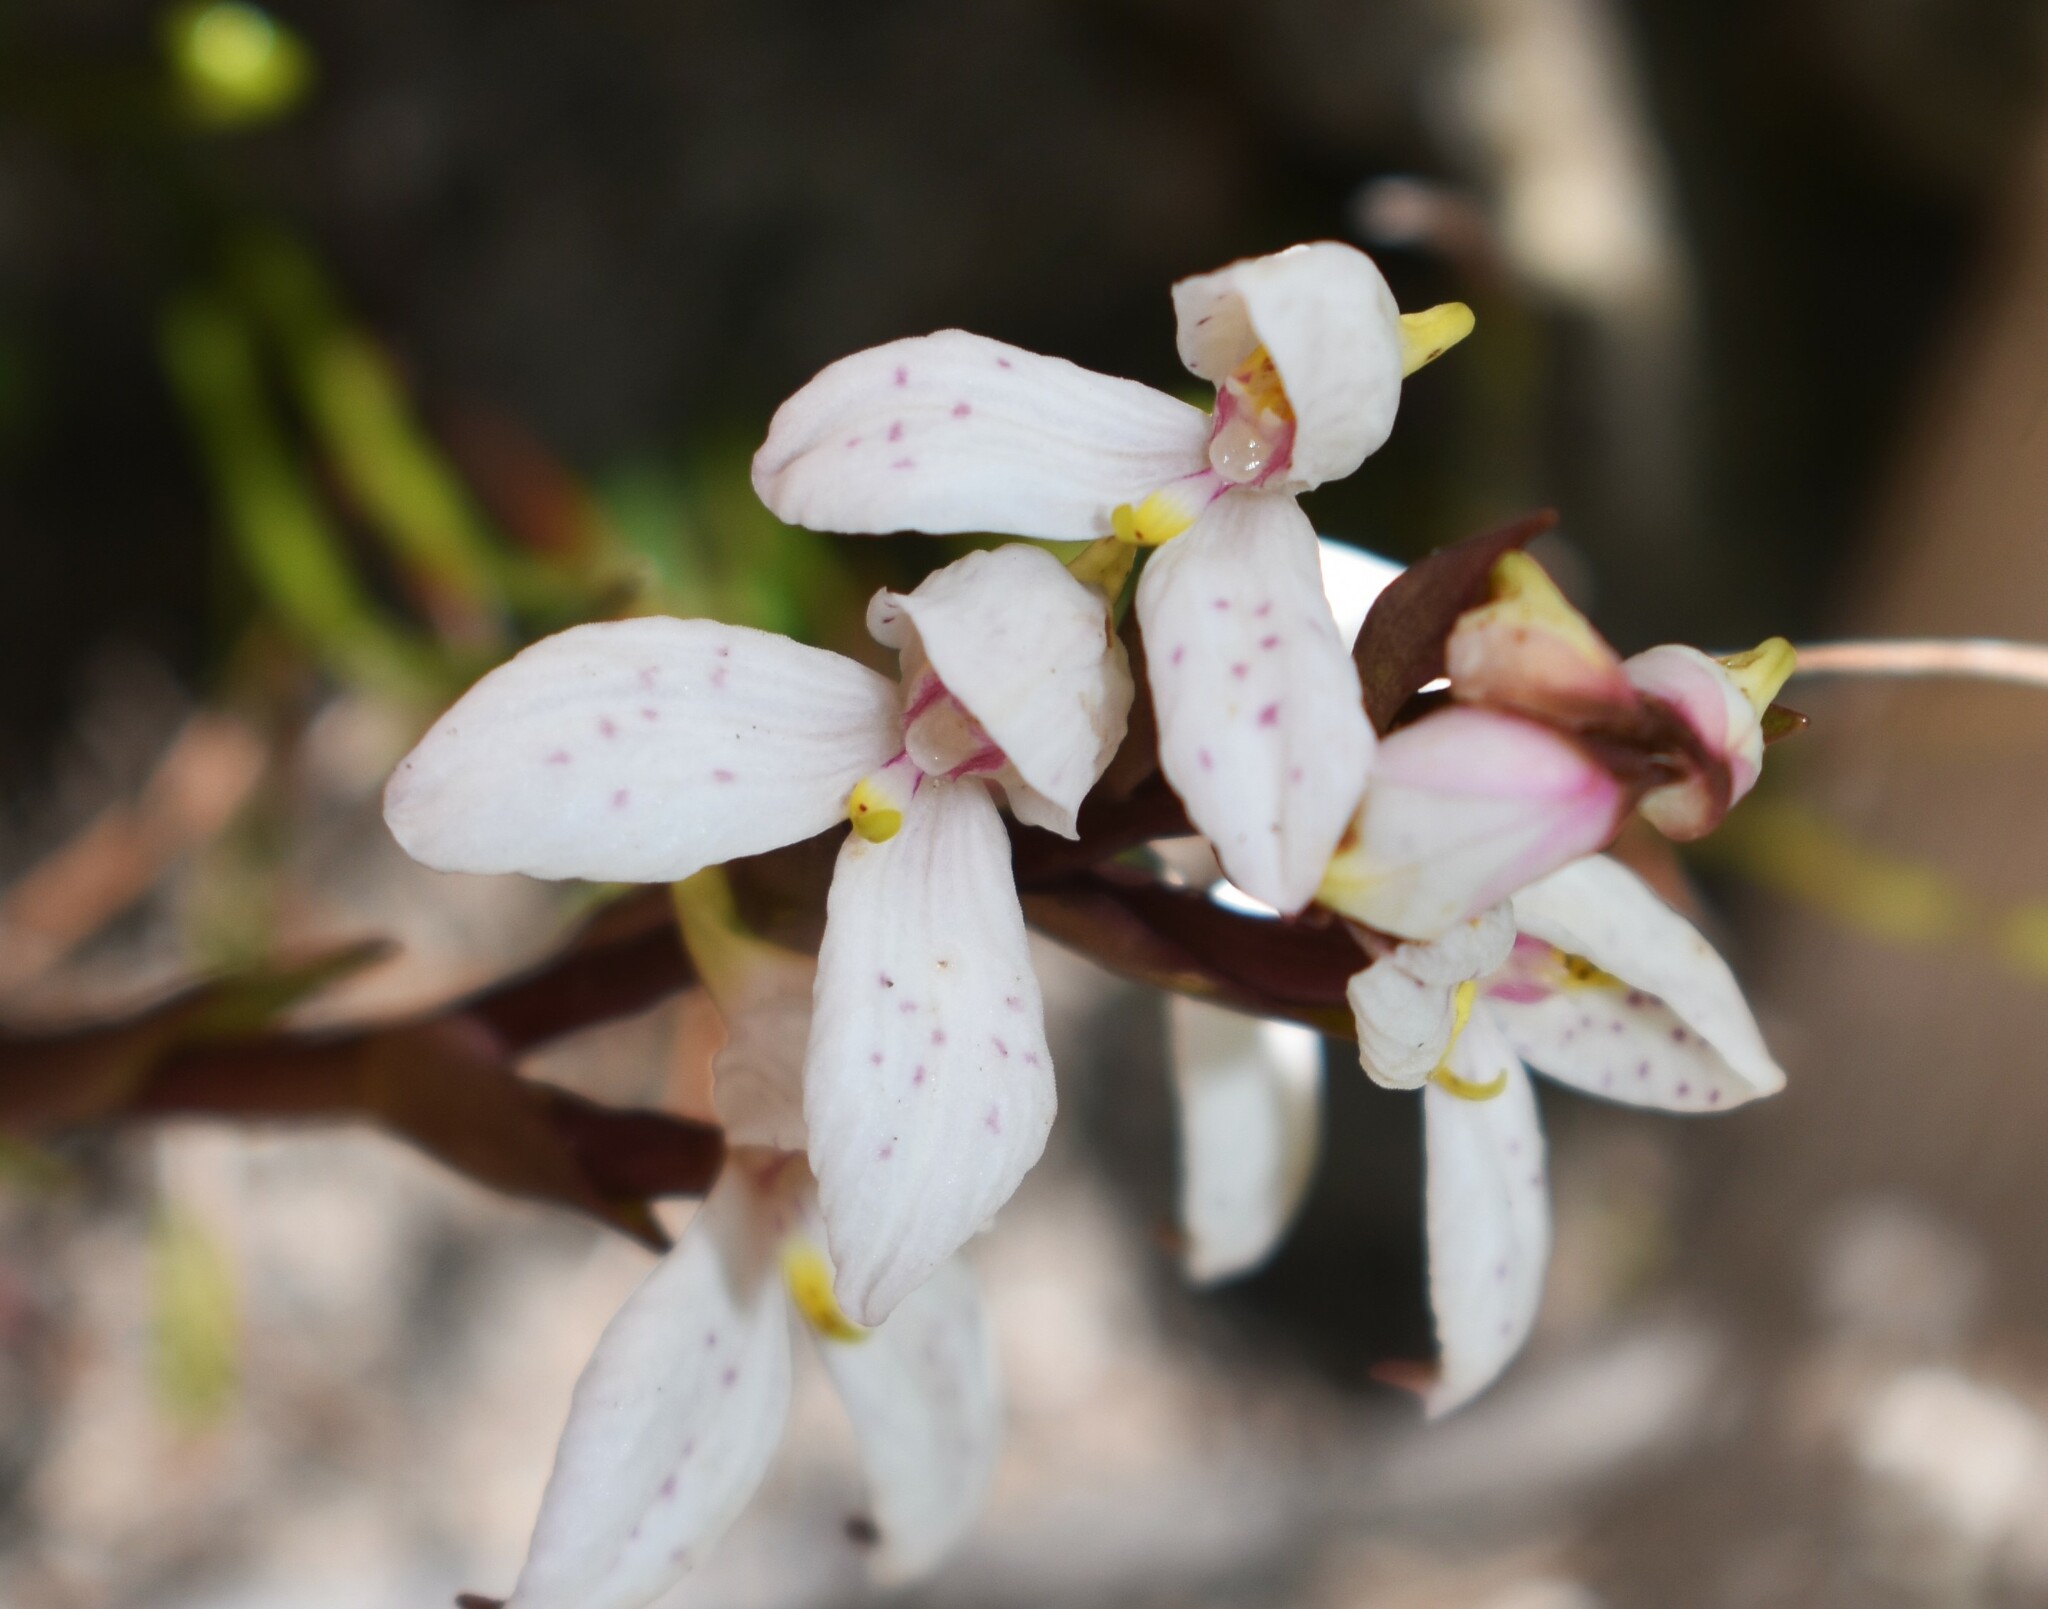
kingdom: Plantae
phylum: Tracheophyta
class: Liliopsida
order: Asparagales
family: Orchidaceae
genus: Disa
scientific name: Disa tripetaloides
